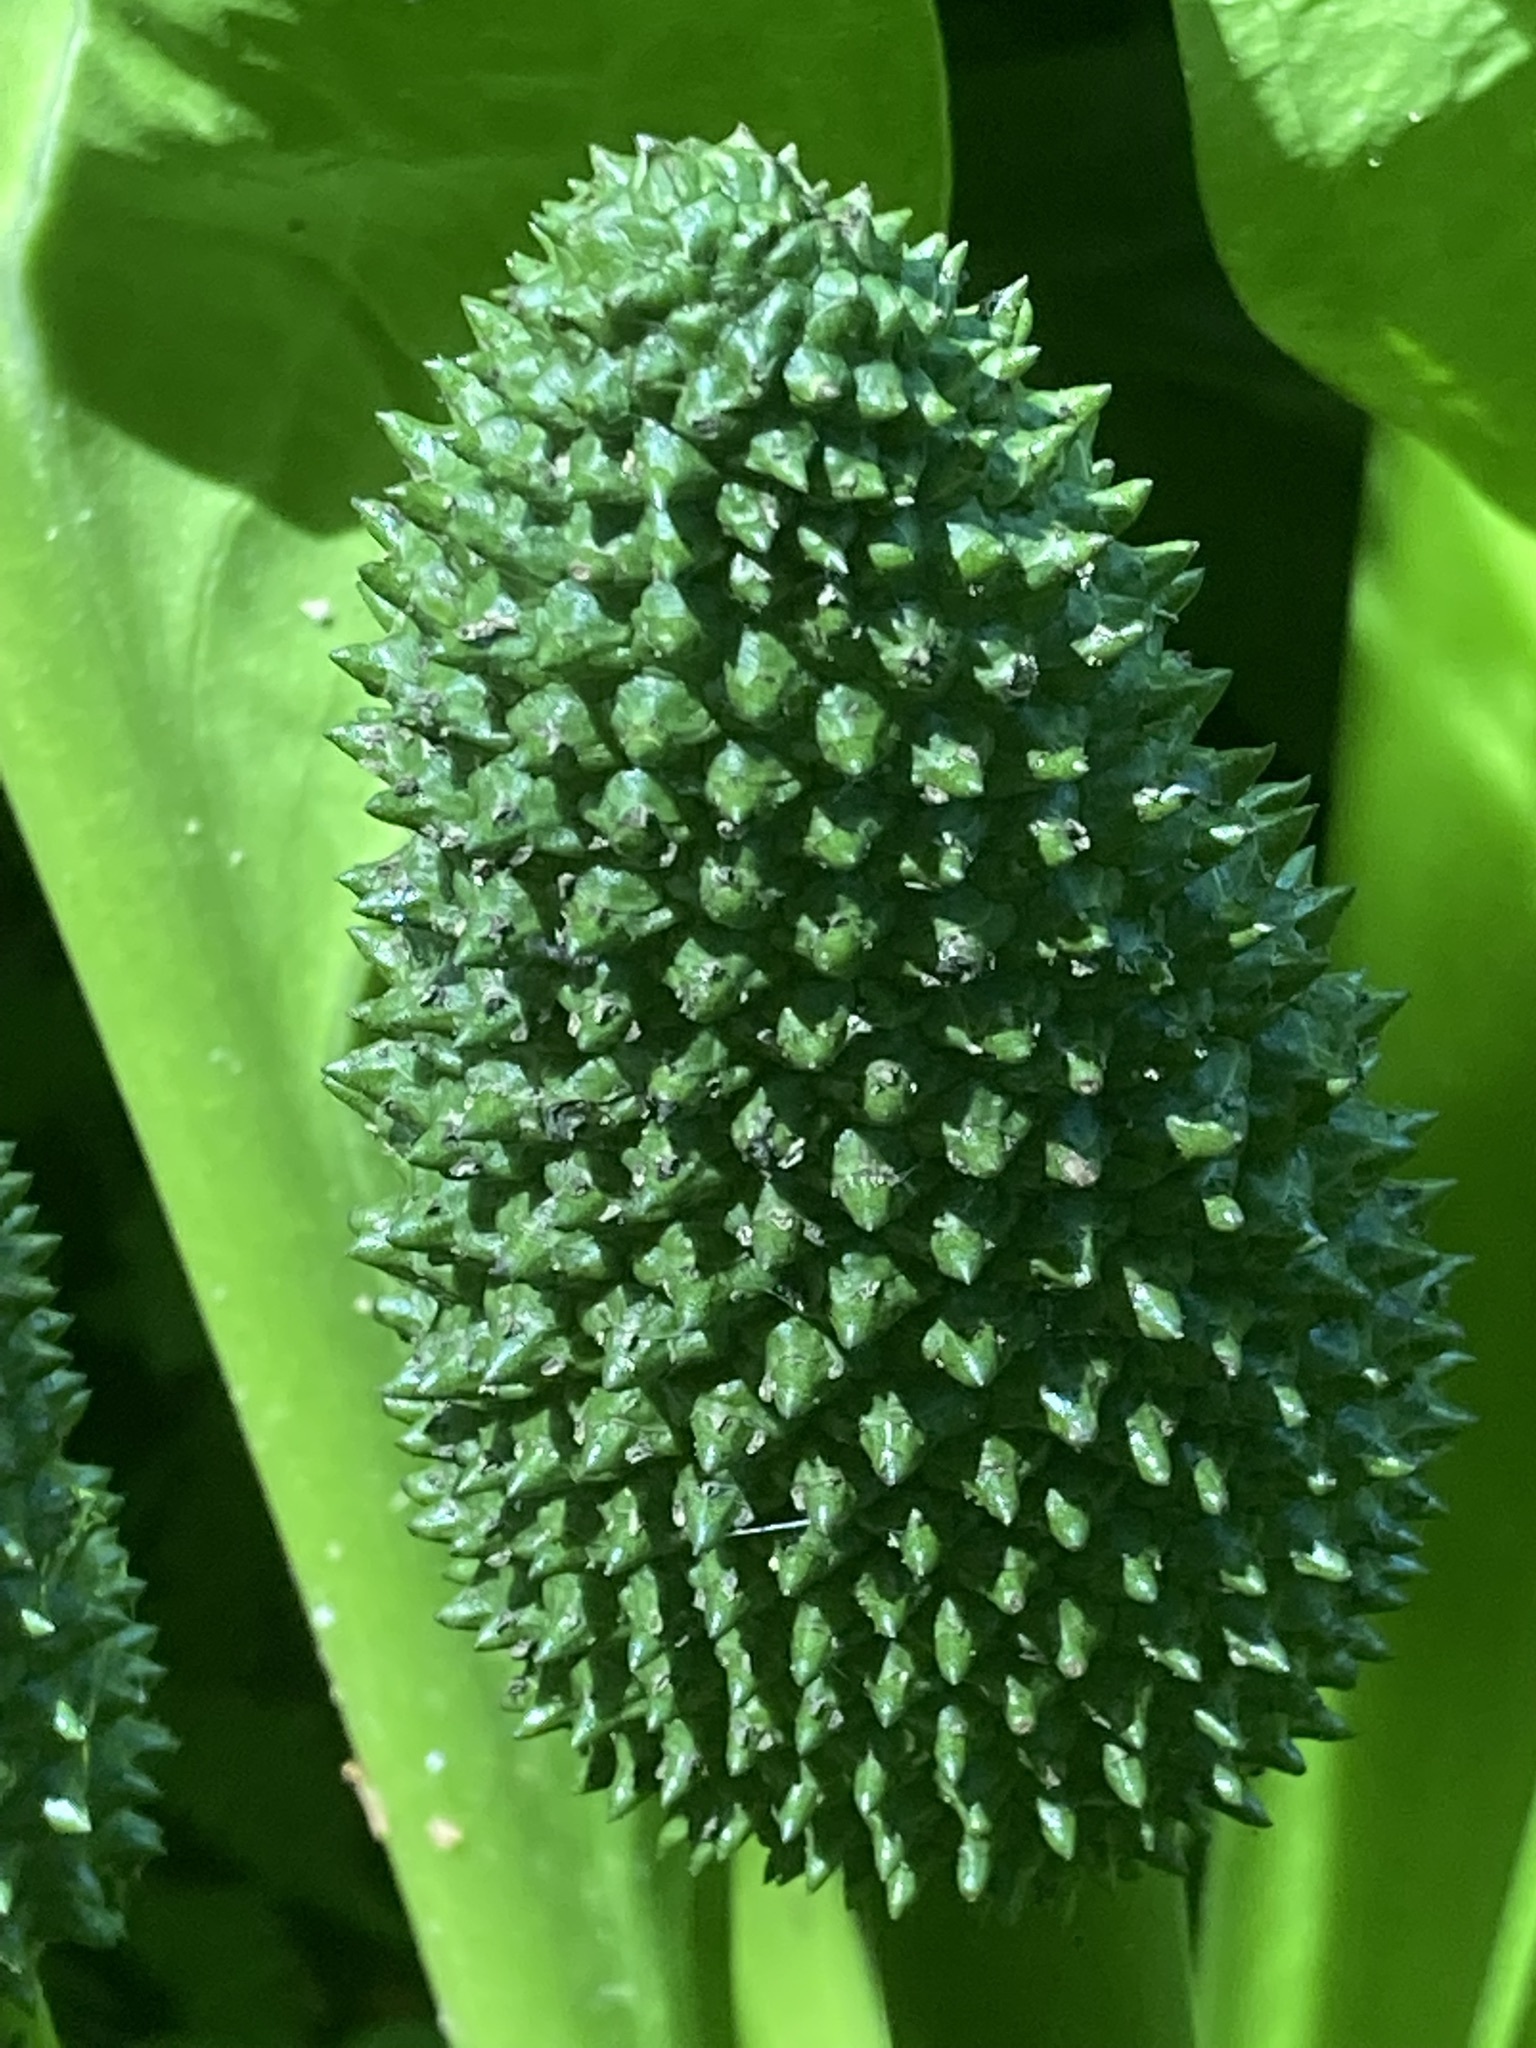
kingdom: Plantae
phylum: Tracheophyta
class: Liliopsida
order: Alismatales
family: Araceae
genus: Lysichiton
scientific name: Lysichiton americanus
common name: American skunk cabbage
